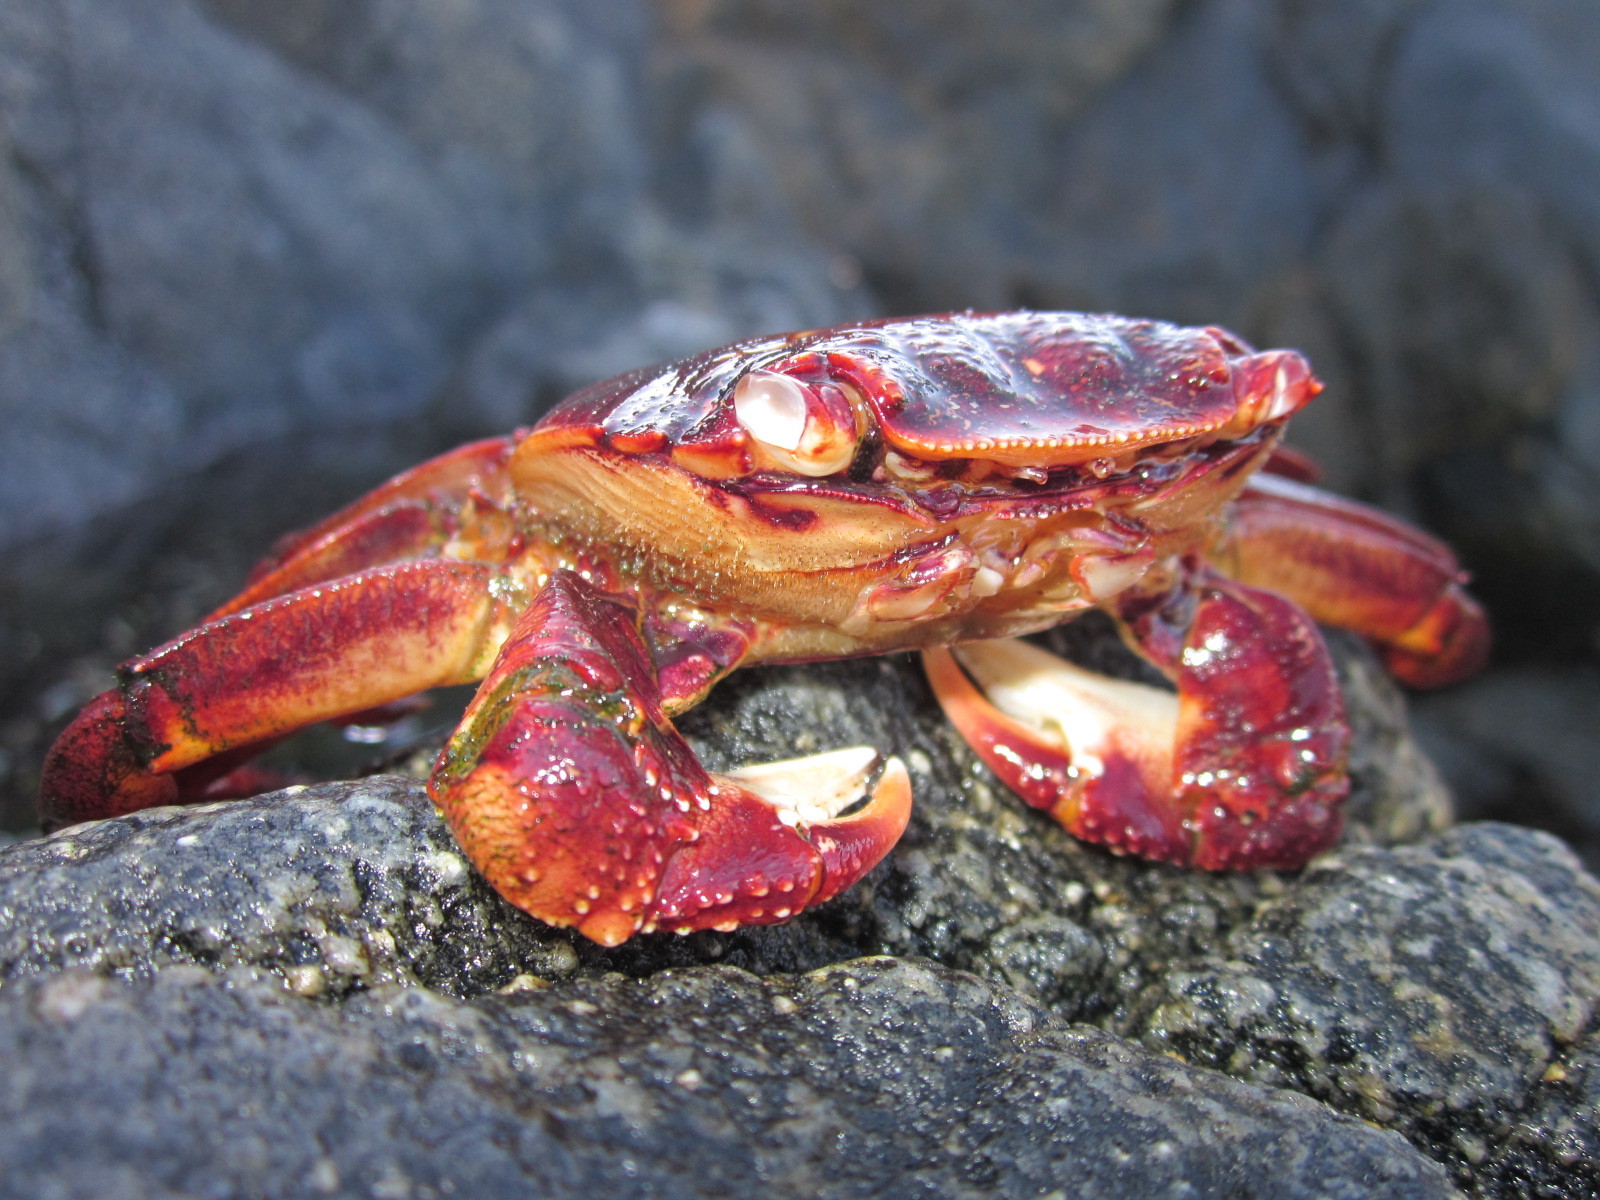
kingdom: Animalia
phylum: Arthropoda
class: Malacostraca
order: Decapoda
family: Grapsidae
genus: Leptograpsus
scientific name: Leptograpsus variegatus
